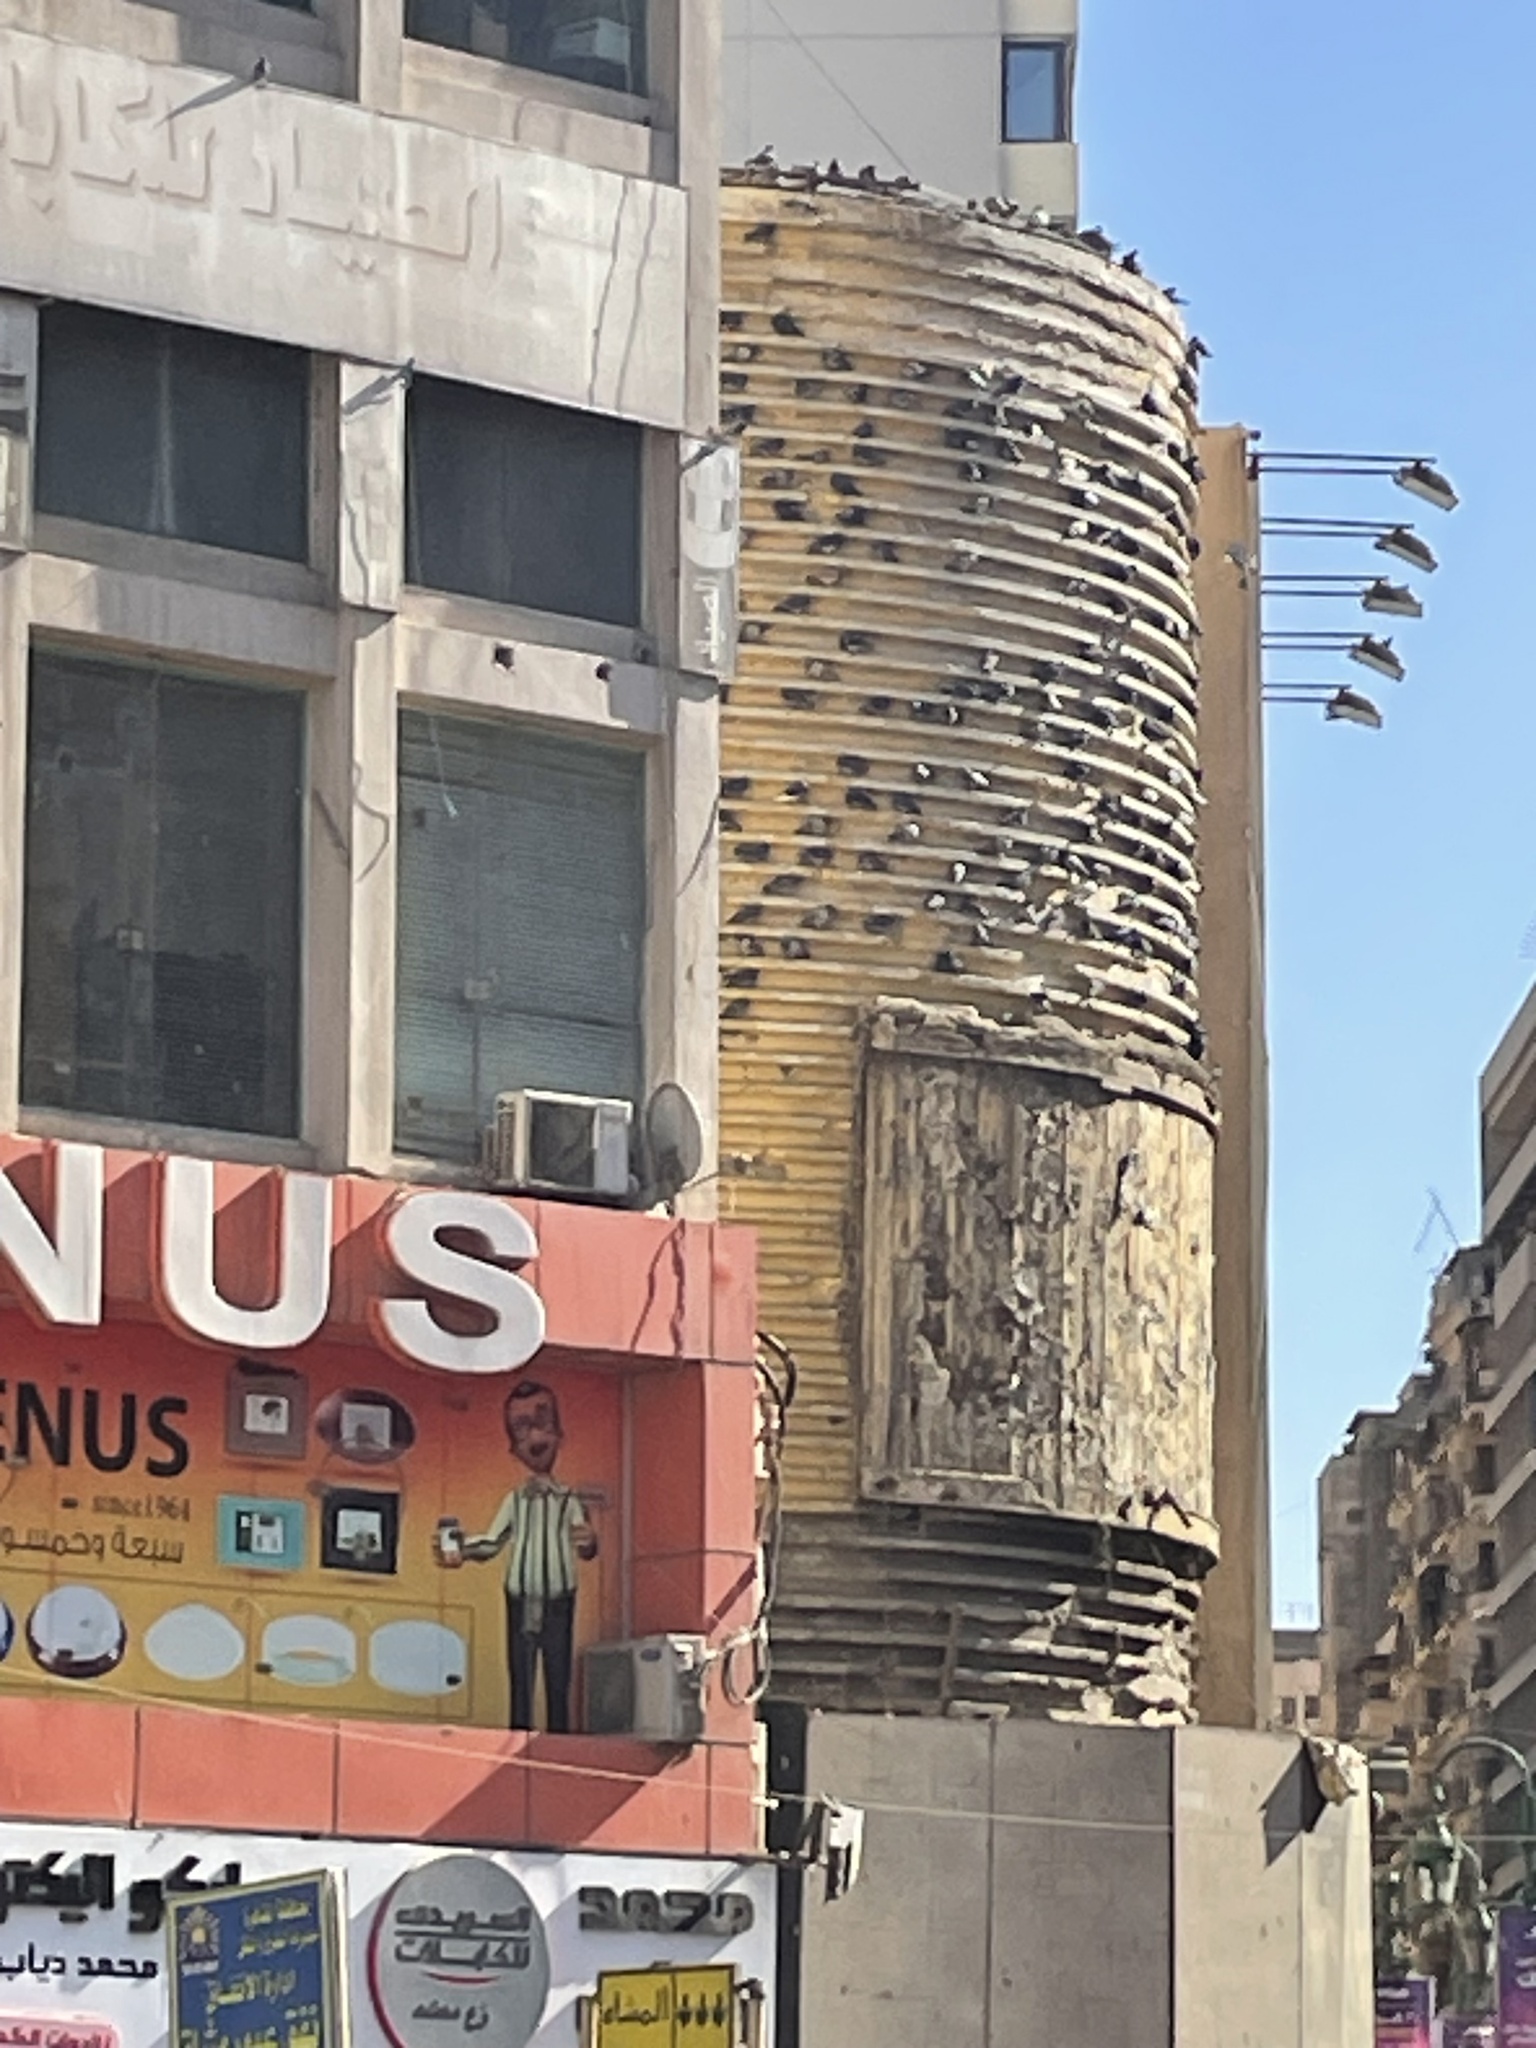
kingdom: Animalia
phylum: Chordata
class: Aves
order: Columbiformes
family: Columbidae
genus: Columba
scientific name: Columba livia
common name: Rock pigeon
